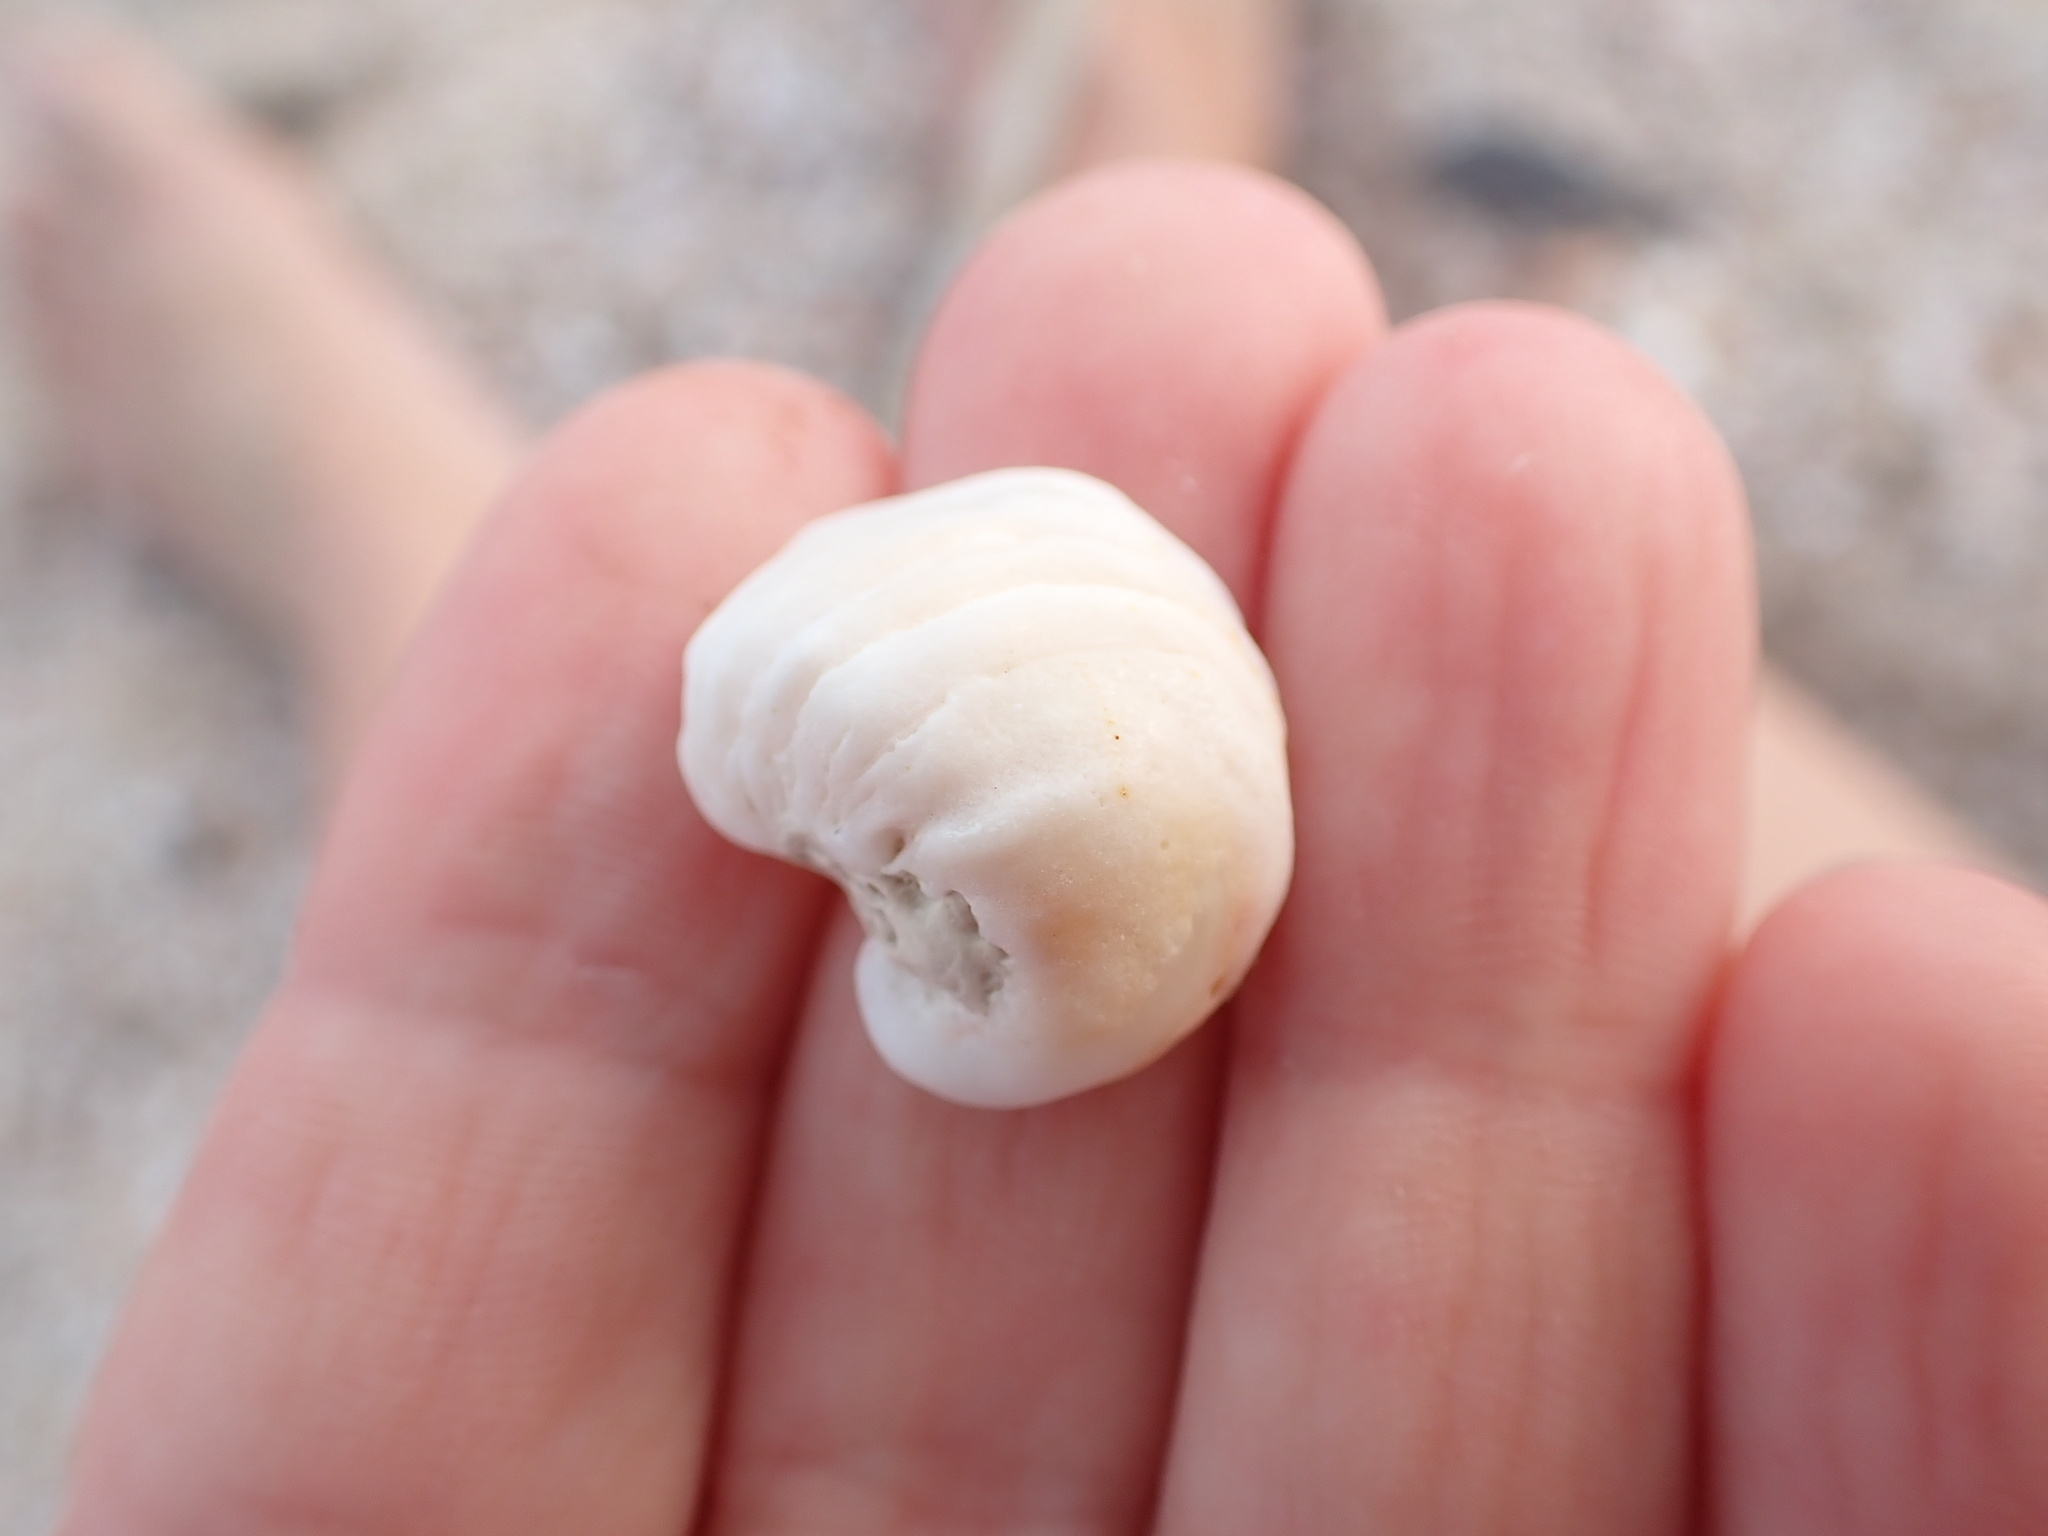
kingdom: Animalia
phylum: Mollusca
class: Bivalvia
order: Venerida
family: Chamidae
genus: Pseudochama
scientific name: Pseudochama gryphina
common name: Left-handed jewel box
